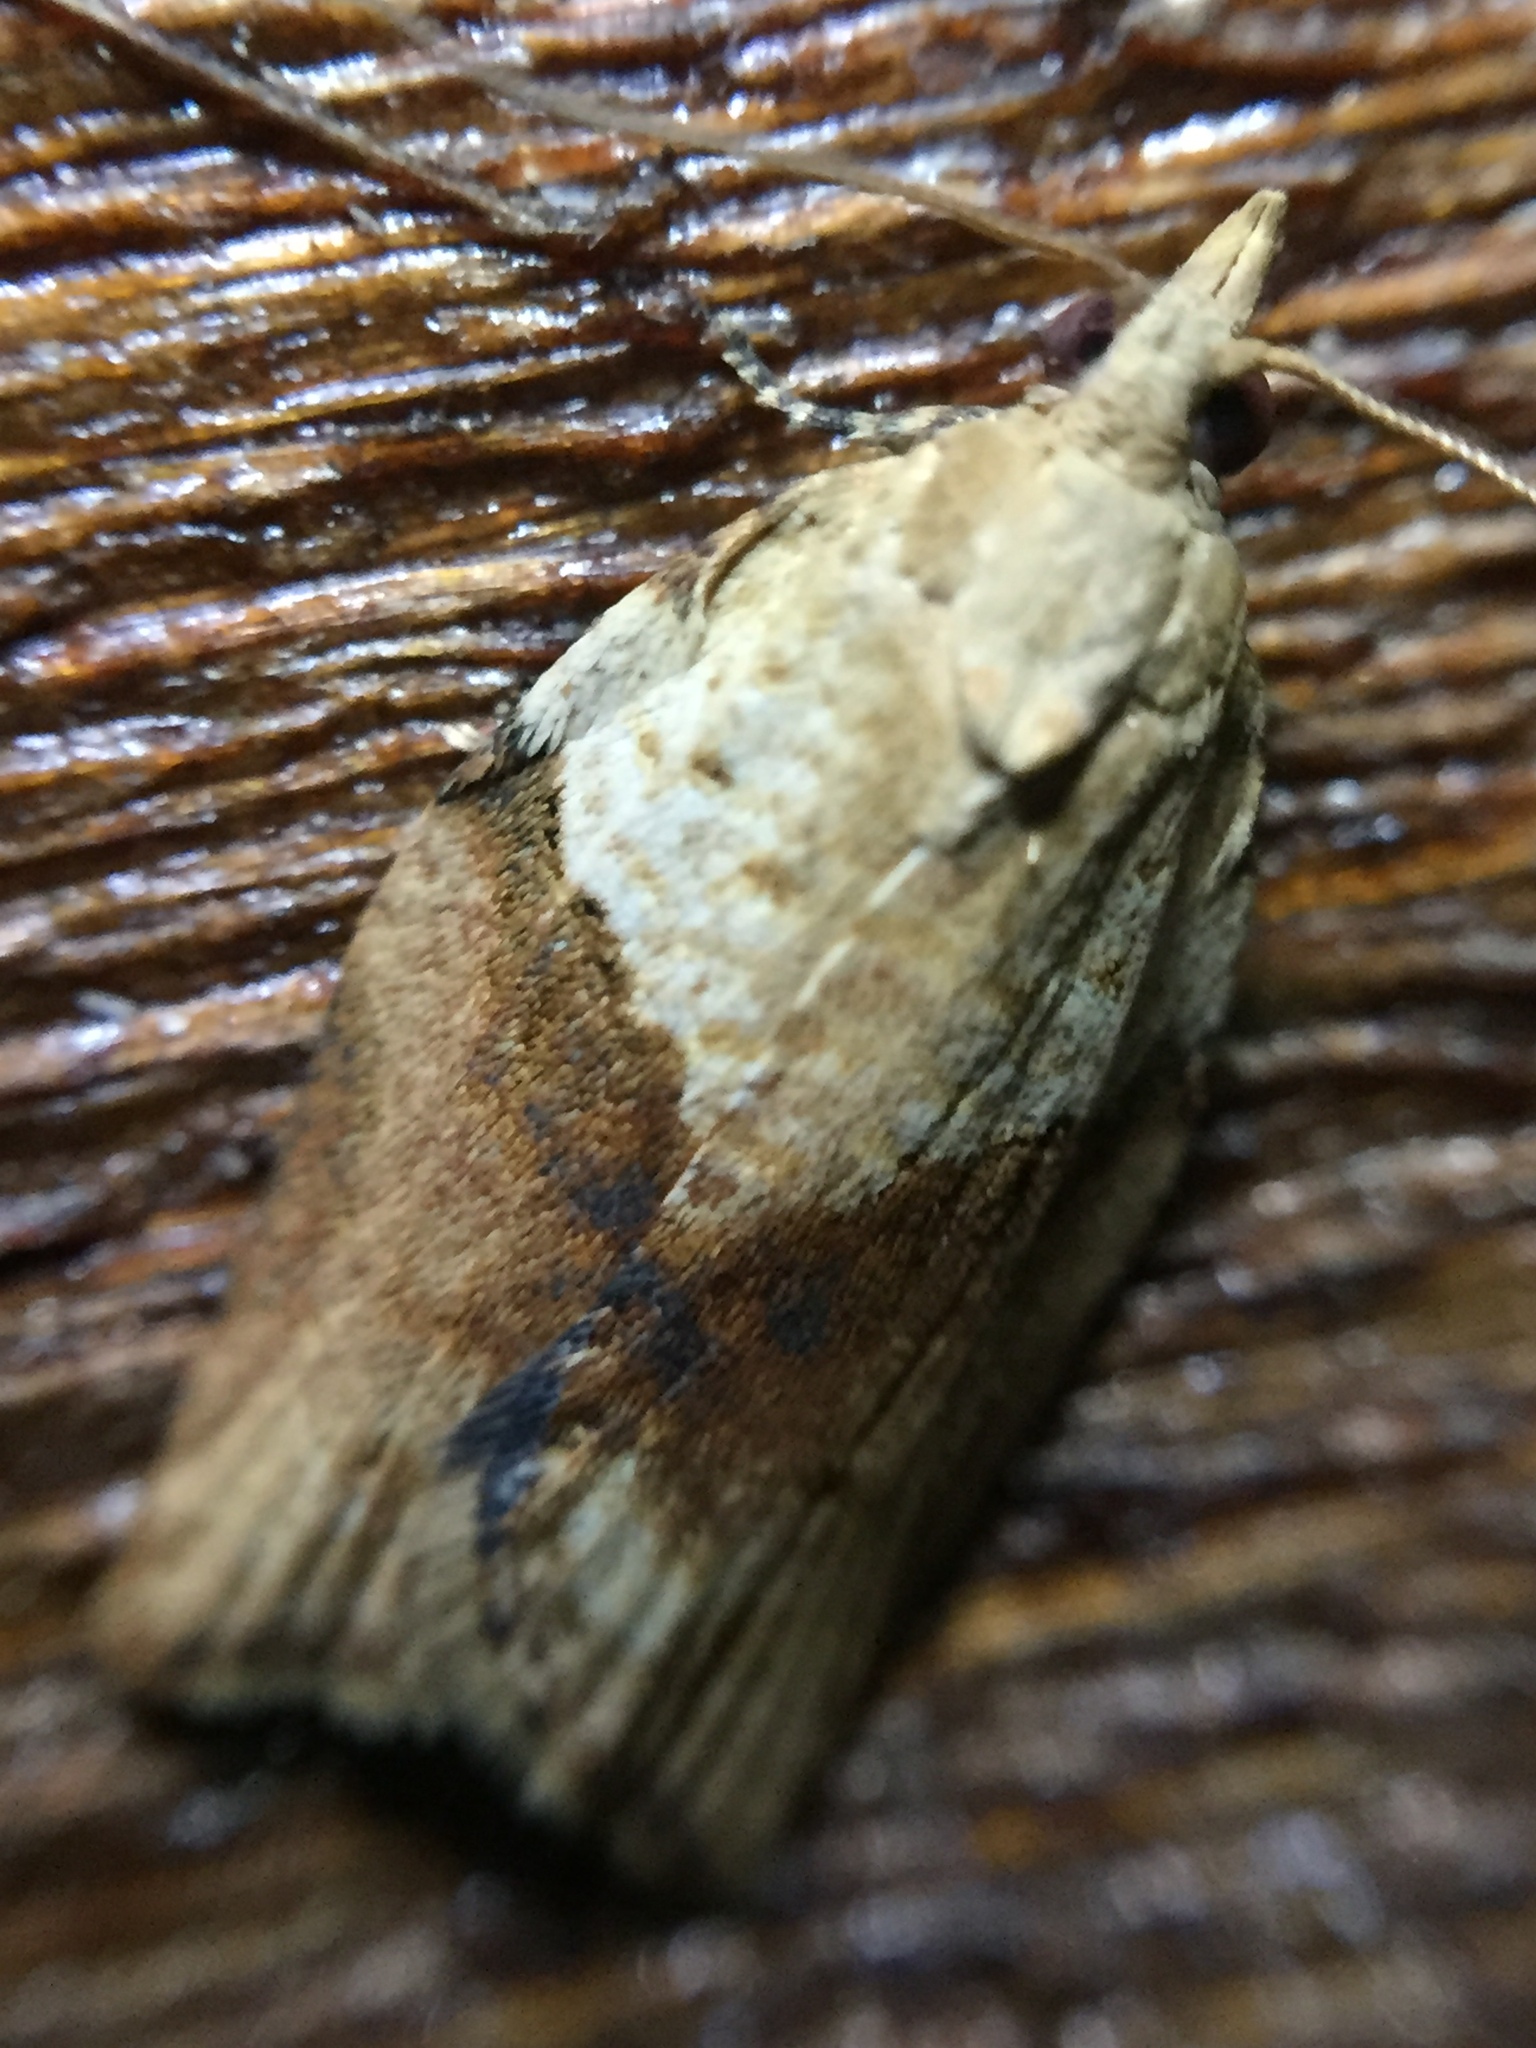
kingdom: Animalia
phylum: Arthropoda
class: Insecta
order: Lepidoptera
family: Tortricidae
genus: Epiphyas
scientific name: Epiphyas postvittana
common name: Light brown apple moth
